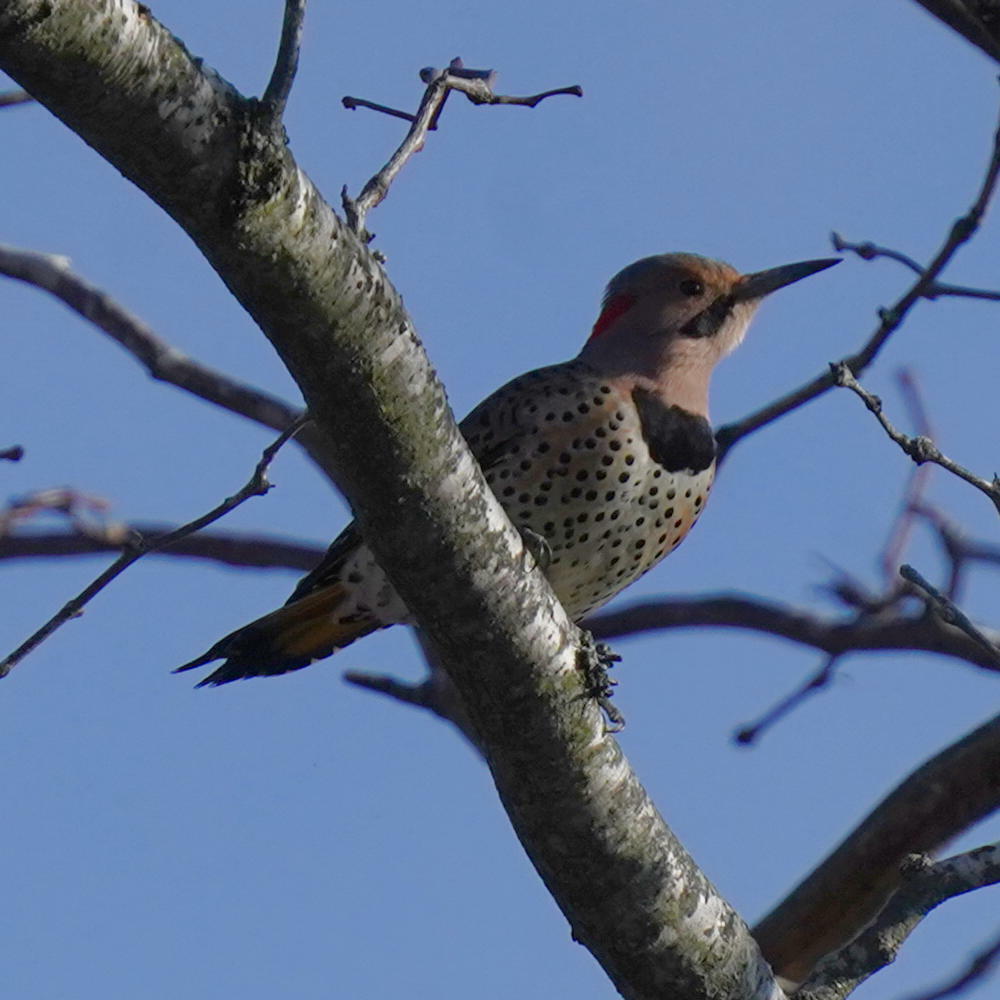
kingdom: Animalia
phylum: Chordata
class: Aves
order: Piciformes
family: Picidae
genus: Colaptes
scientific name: Colaptes auratus
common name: Northern flicker
